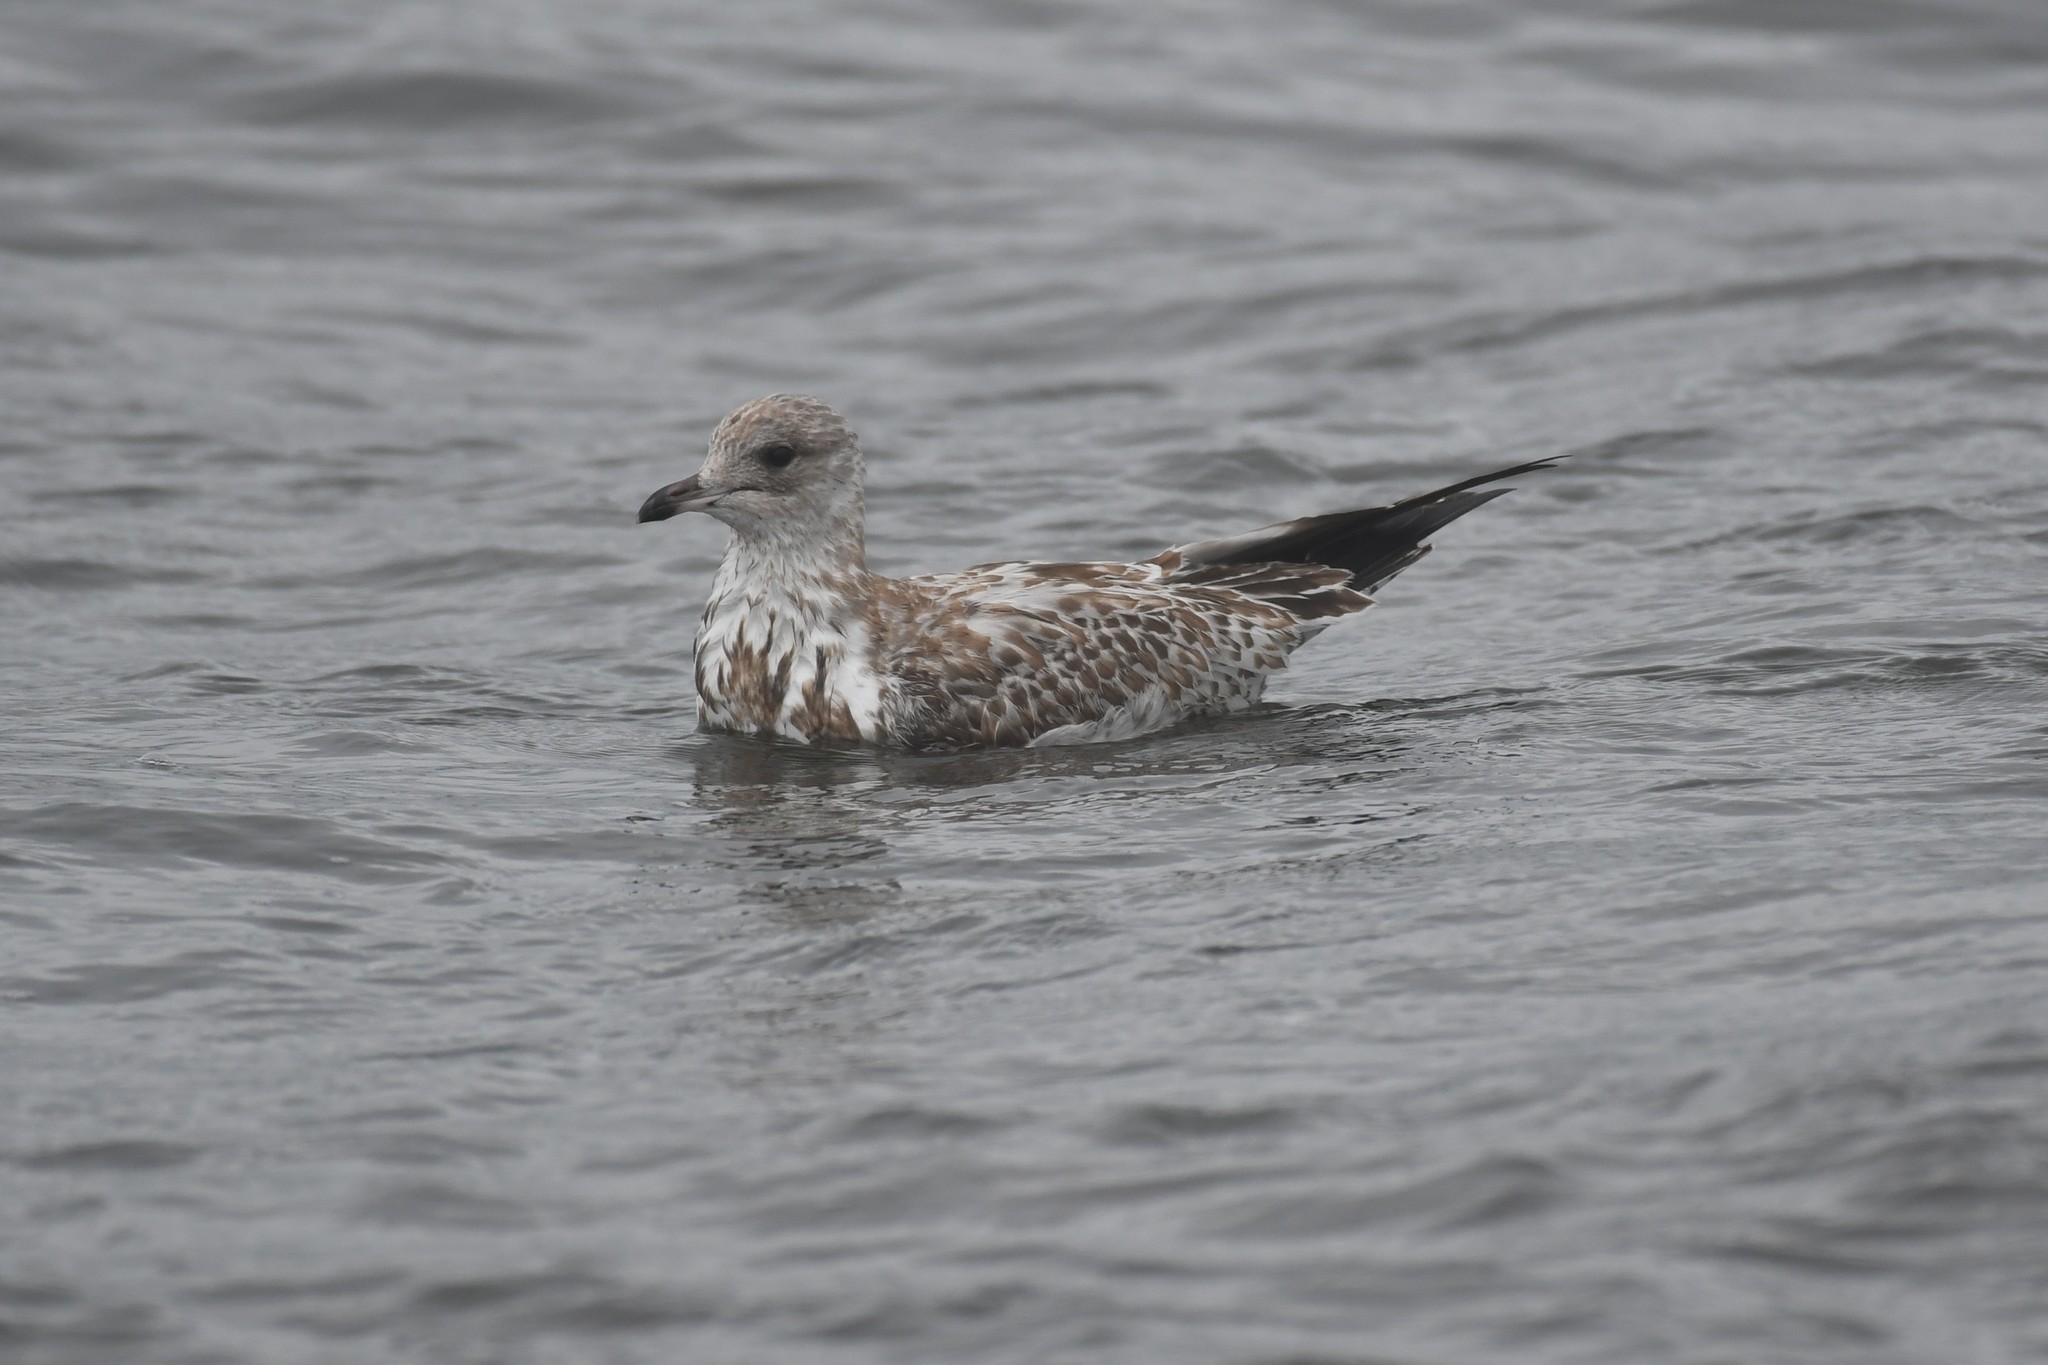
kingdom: Animalia
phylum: Chordata
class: Aves
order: Charadriiformes
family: Laridae
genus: Larus
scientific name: Larus delawarensis
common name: Ring-billed gull
